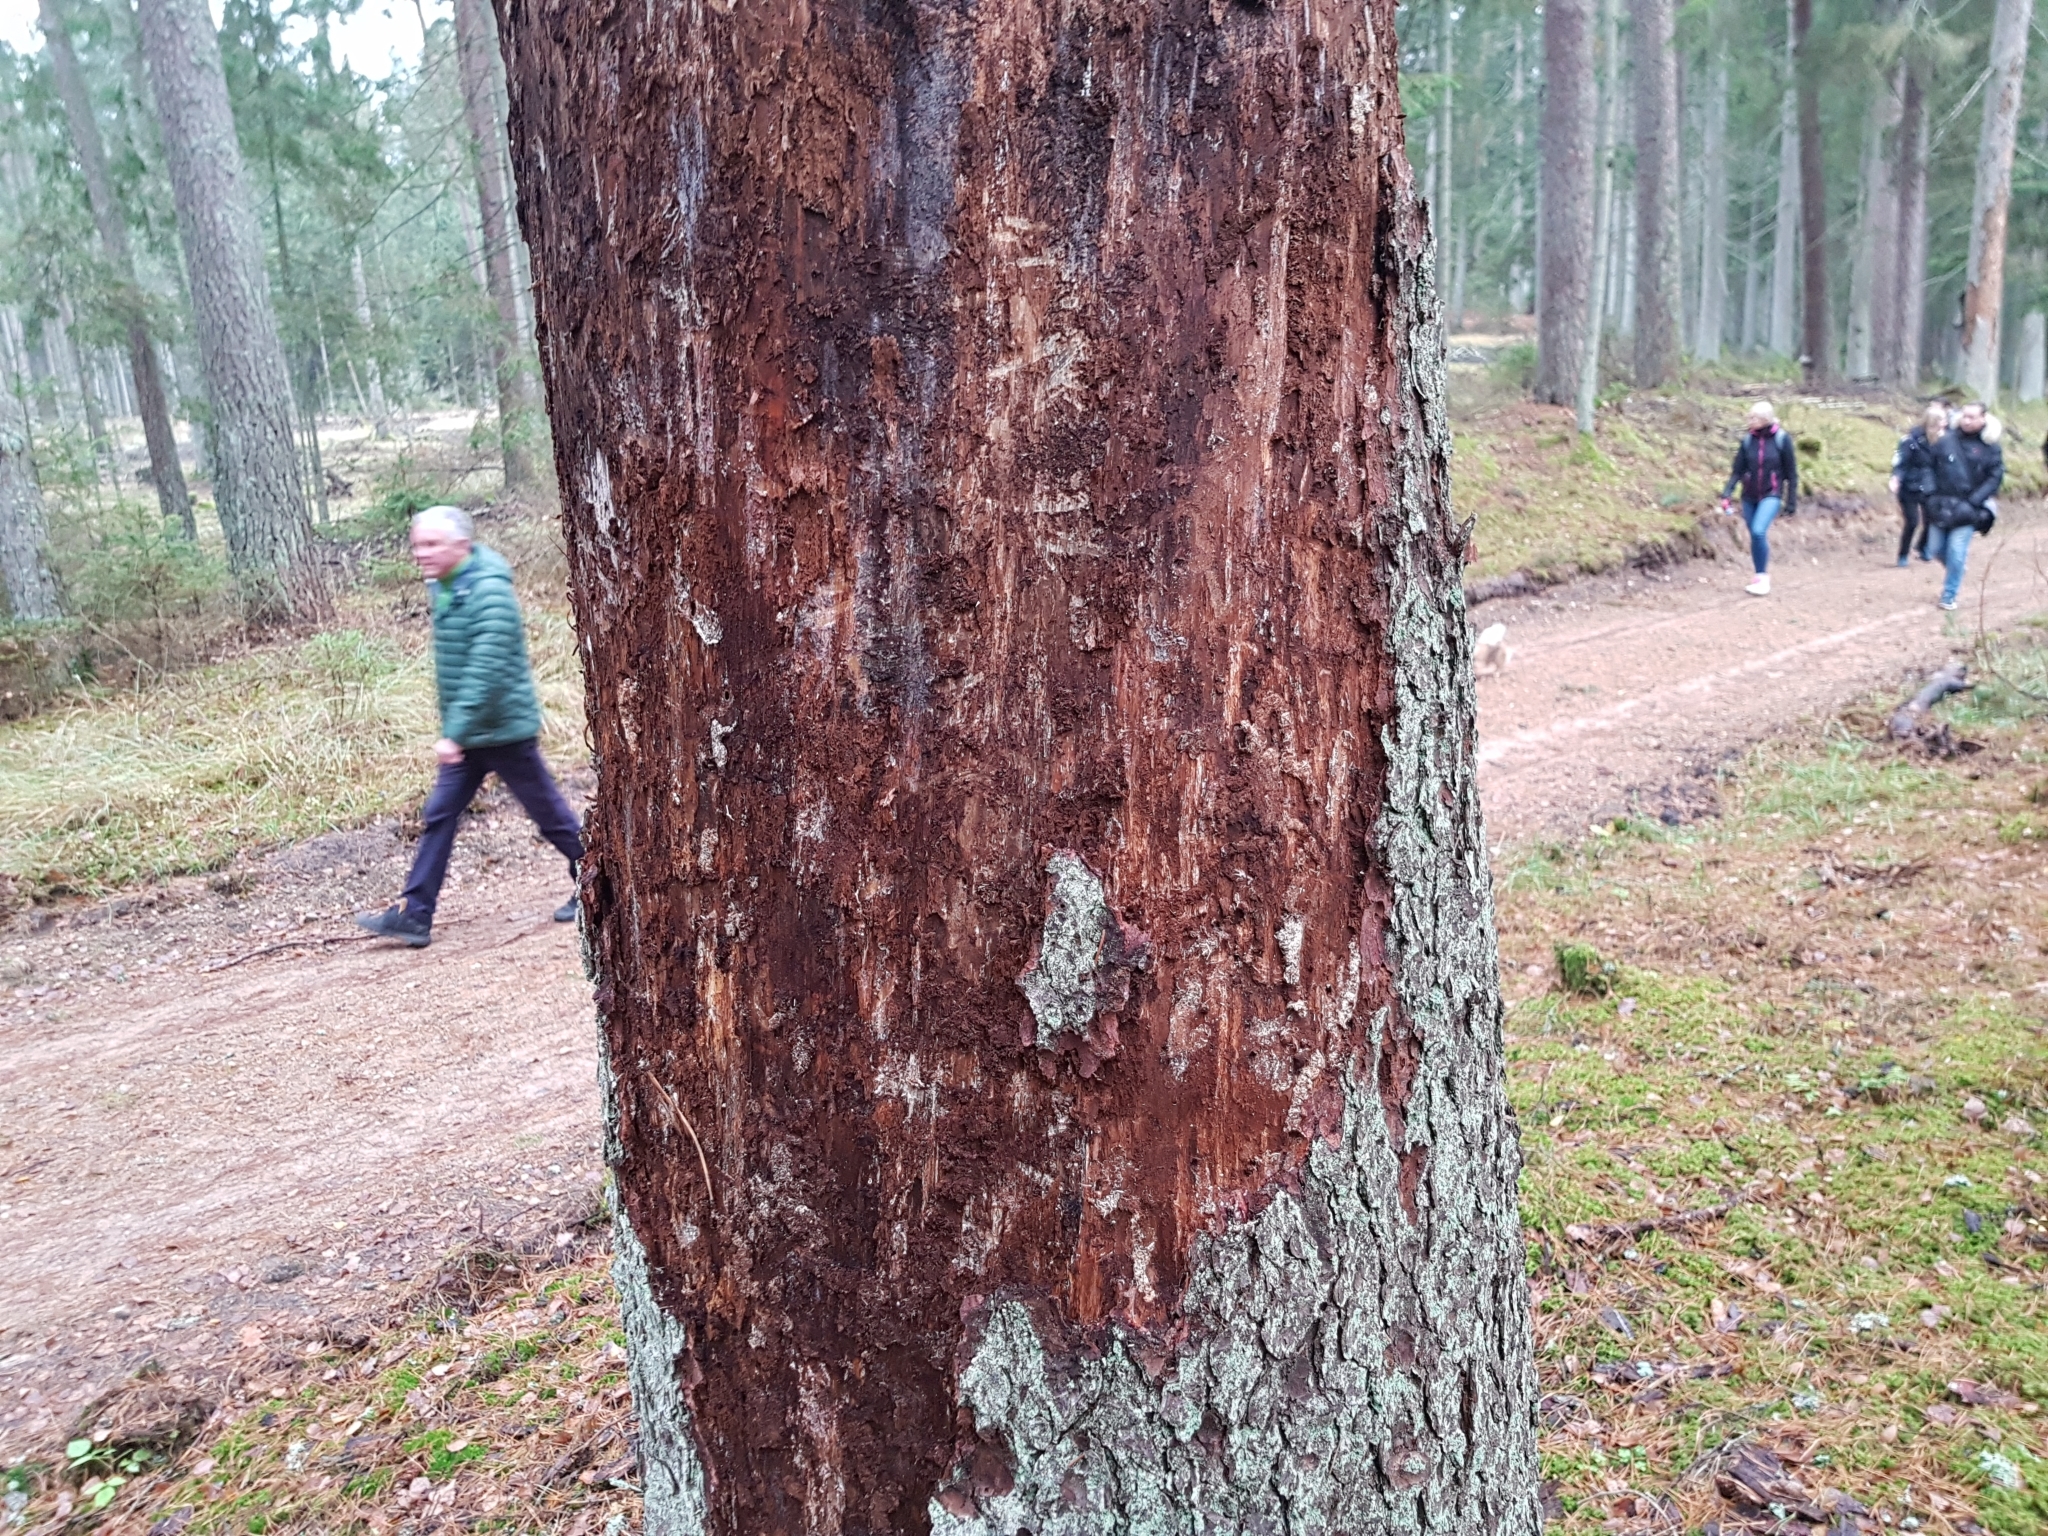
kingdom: Animalia
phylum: Arthropoda
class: Insecta
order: Coleoptera
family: Curculionidae
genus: Ips
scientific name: Ips typographus
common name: Eight-toothed spruce bark beetle
